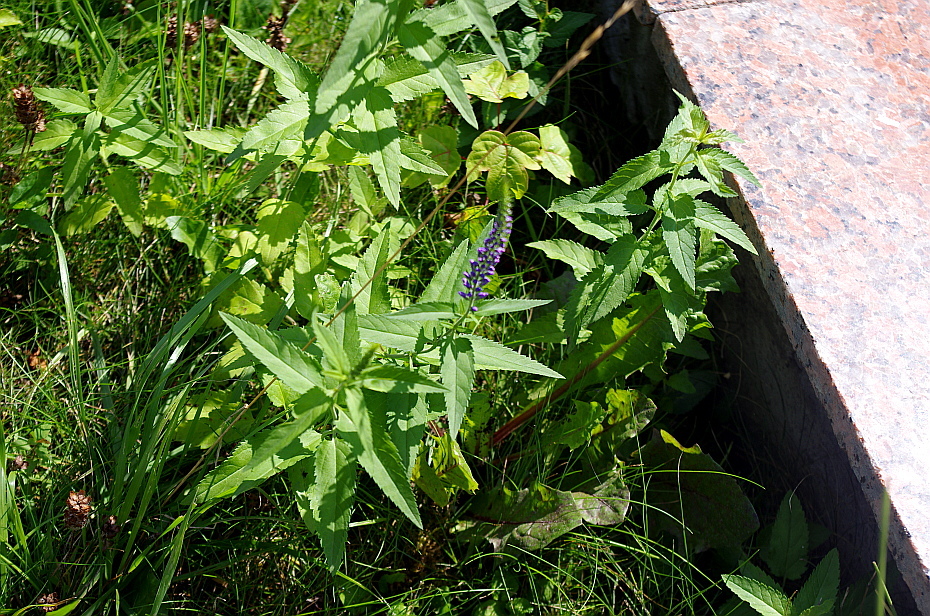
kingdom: Plantae
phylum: Tracheophyta
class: Magnoliopsida
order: Lamiales
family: Plantaginaceae
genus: Veronica
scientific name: Veronica longifolia
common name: Garden speedwell
